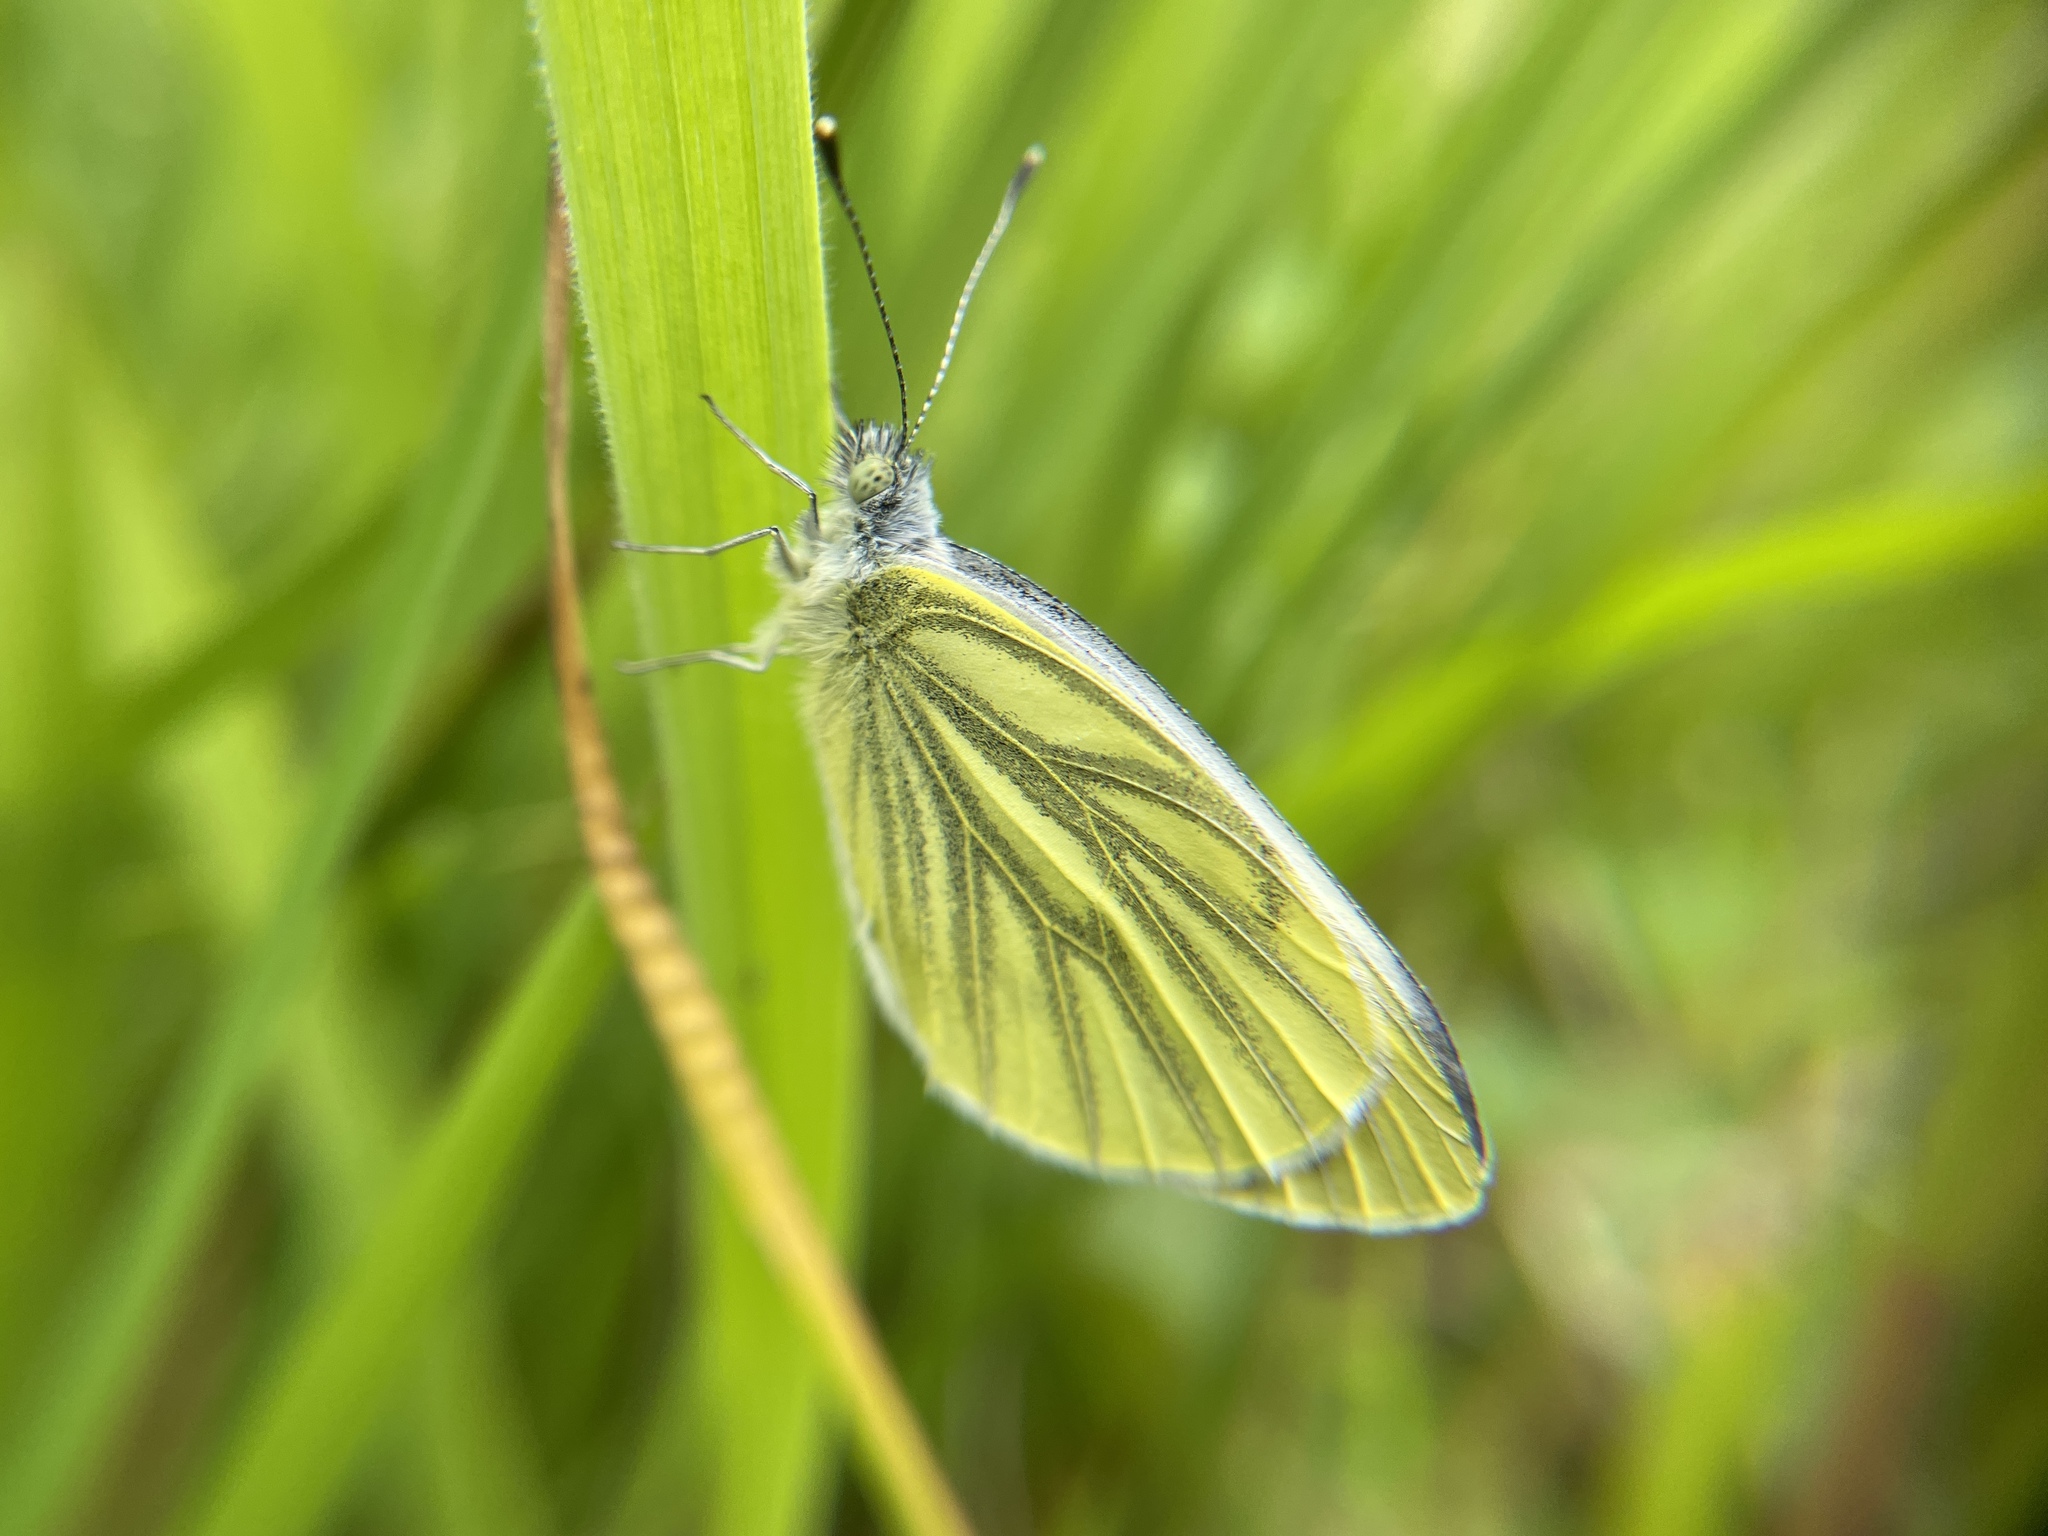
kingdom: Animalia
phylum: Arthropoda
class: Insecta
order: Lepidoptera
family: Pieridae
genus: Pieris
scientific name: Pieris napi
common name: Green-veined white
